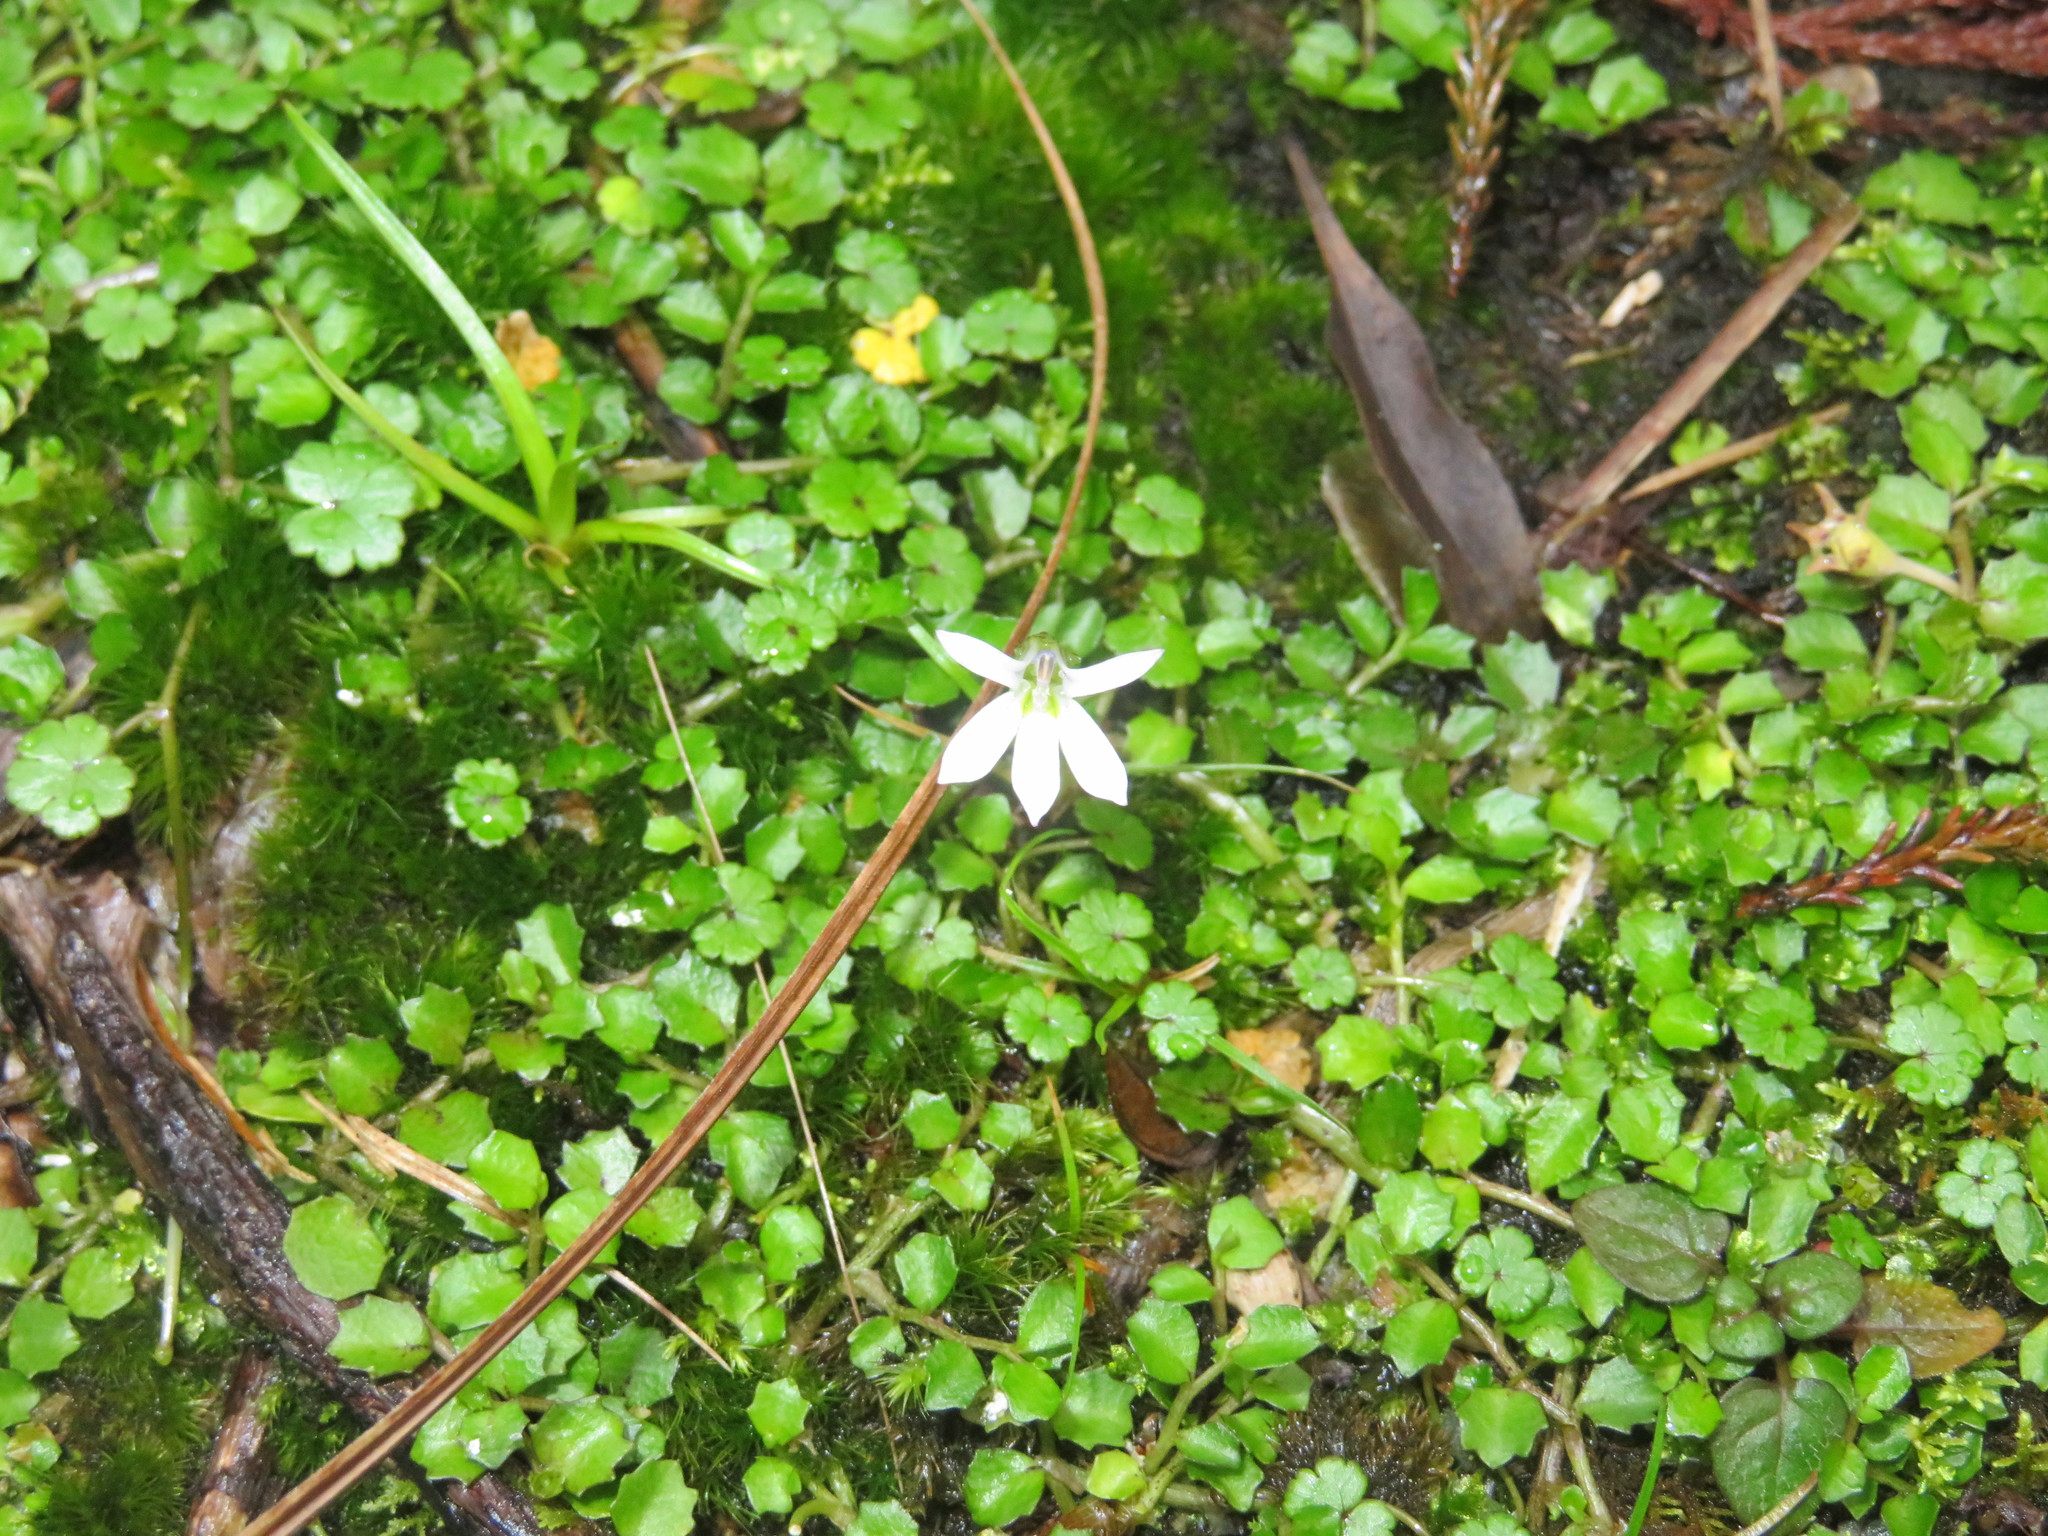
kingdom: Plantae
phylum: Tracheophyta
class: Magnoliopsida
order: Asterales
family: Campanulaceae
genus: Lobelia
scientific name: Lobelia angulata
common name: Lawn lobelia
